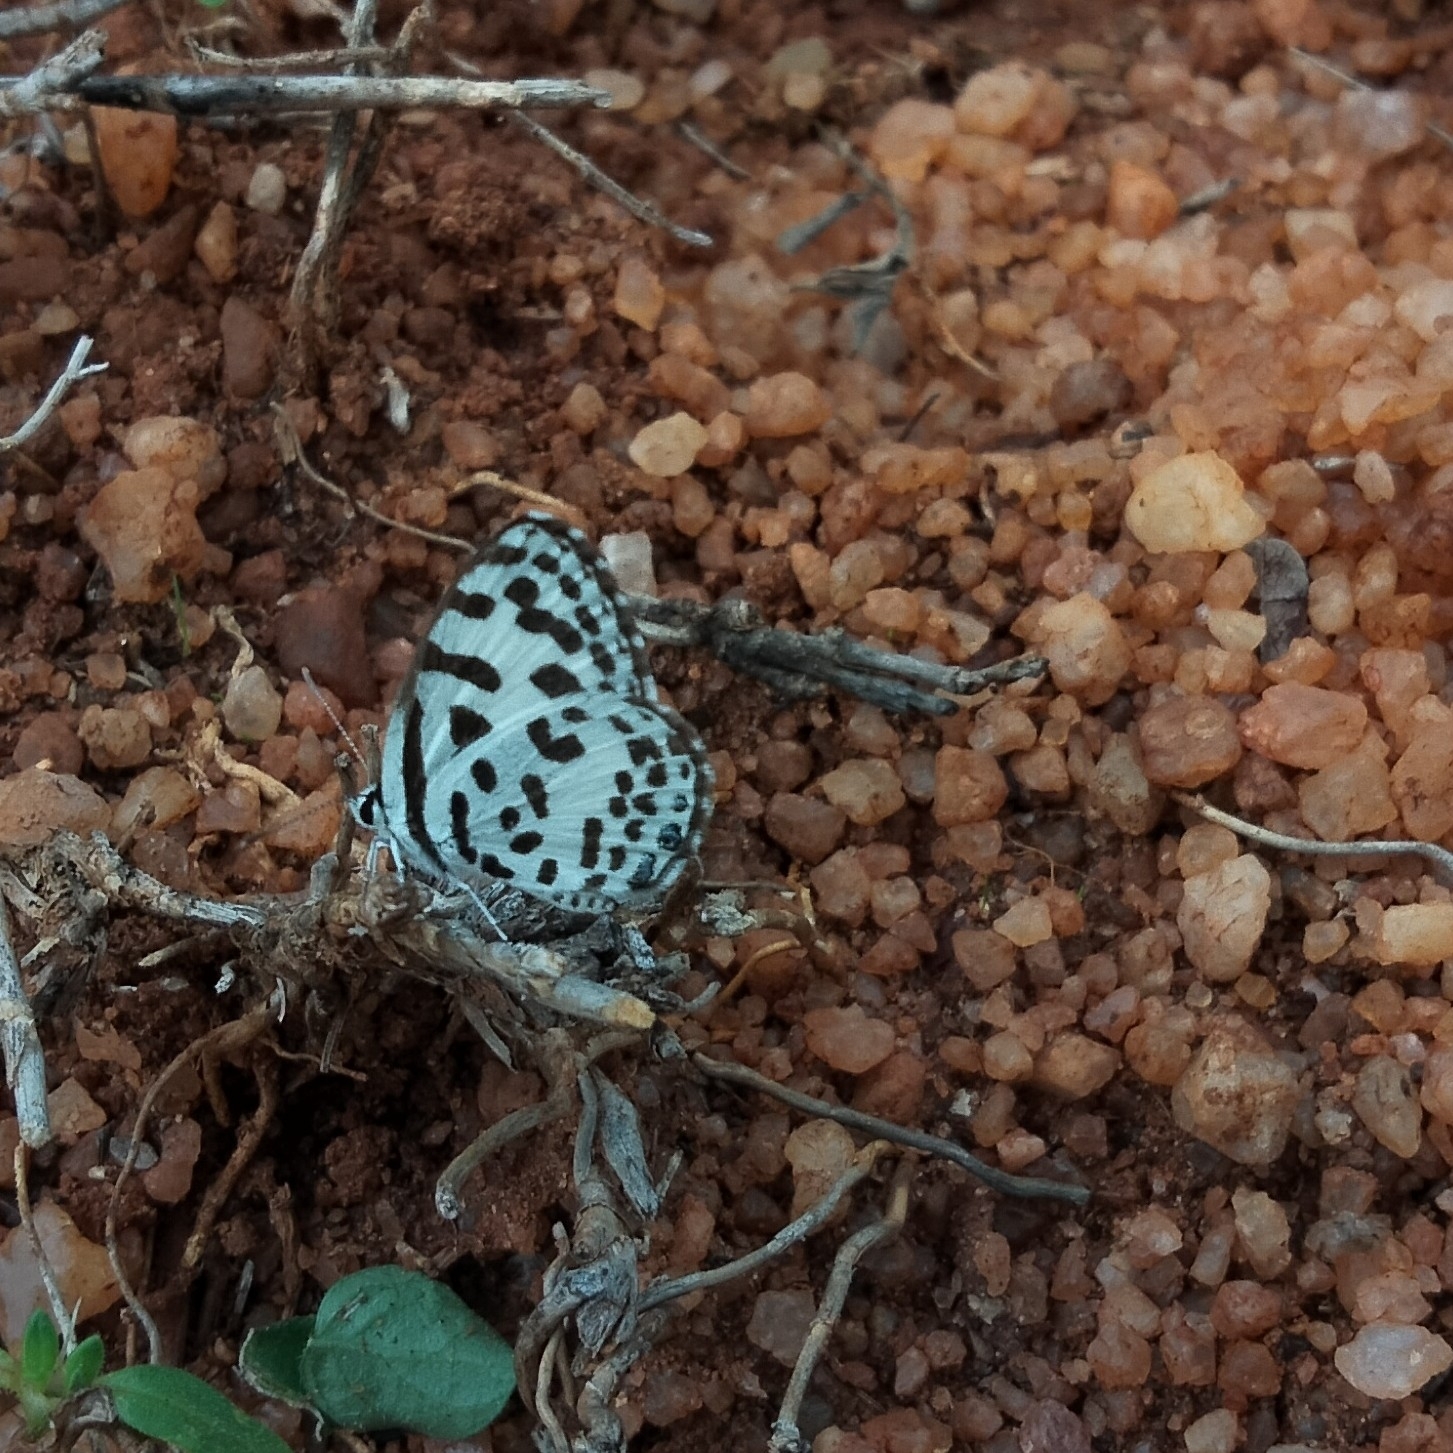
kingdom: Animalia
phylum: Arthropoda
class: Insecta
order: Lepidoptera
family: Lycaenidae
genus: Castalius
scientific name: Castalius rosimon
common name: Common pierrot
